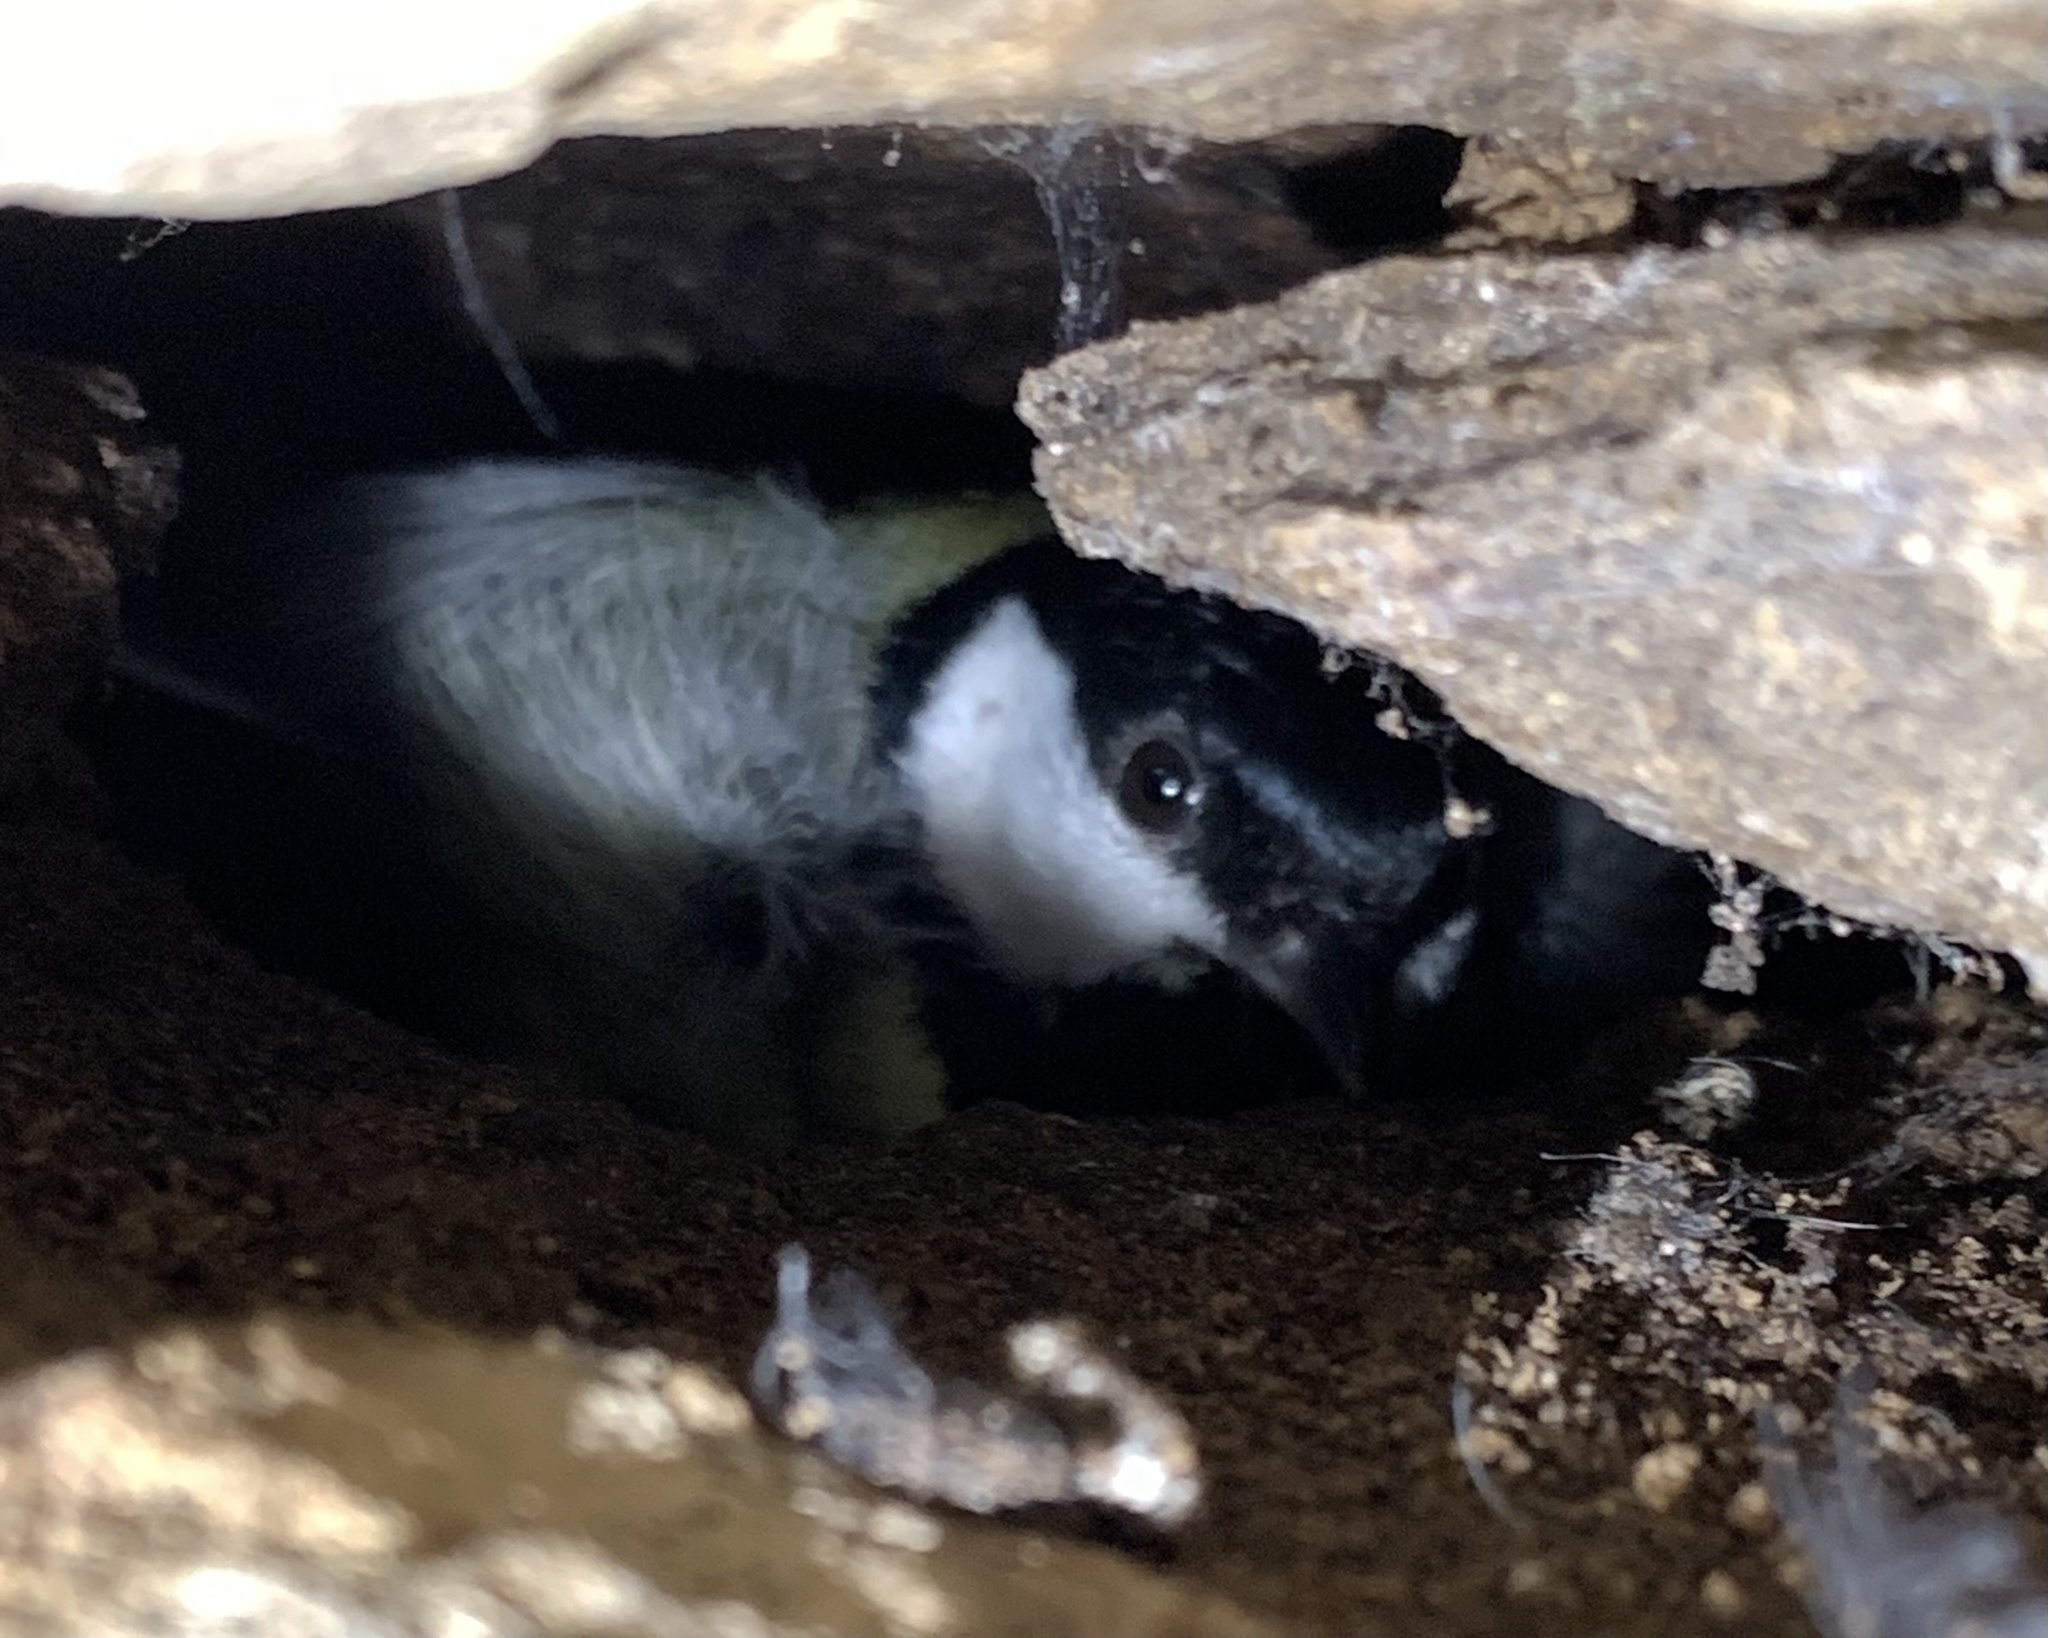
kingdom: Animalia
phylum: Chordata
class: Aves
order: Passeriformes
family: Paridae
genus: Parus
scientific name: Parus major
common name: Great tit
